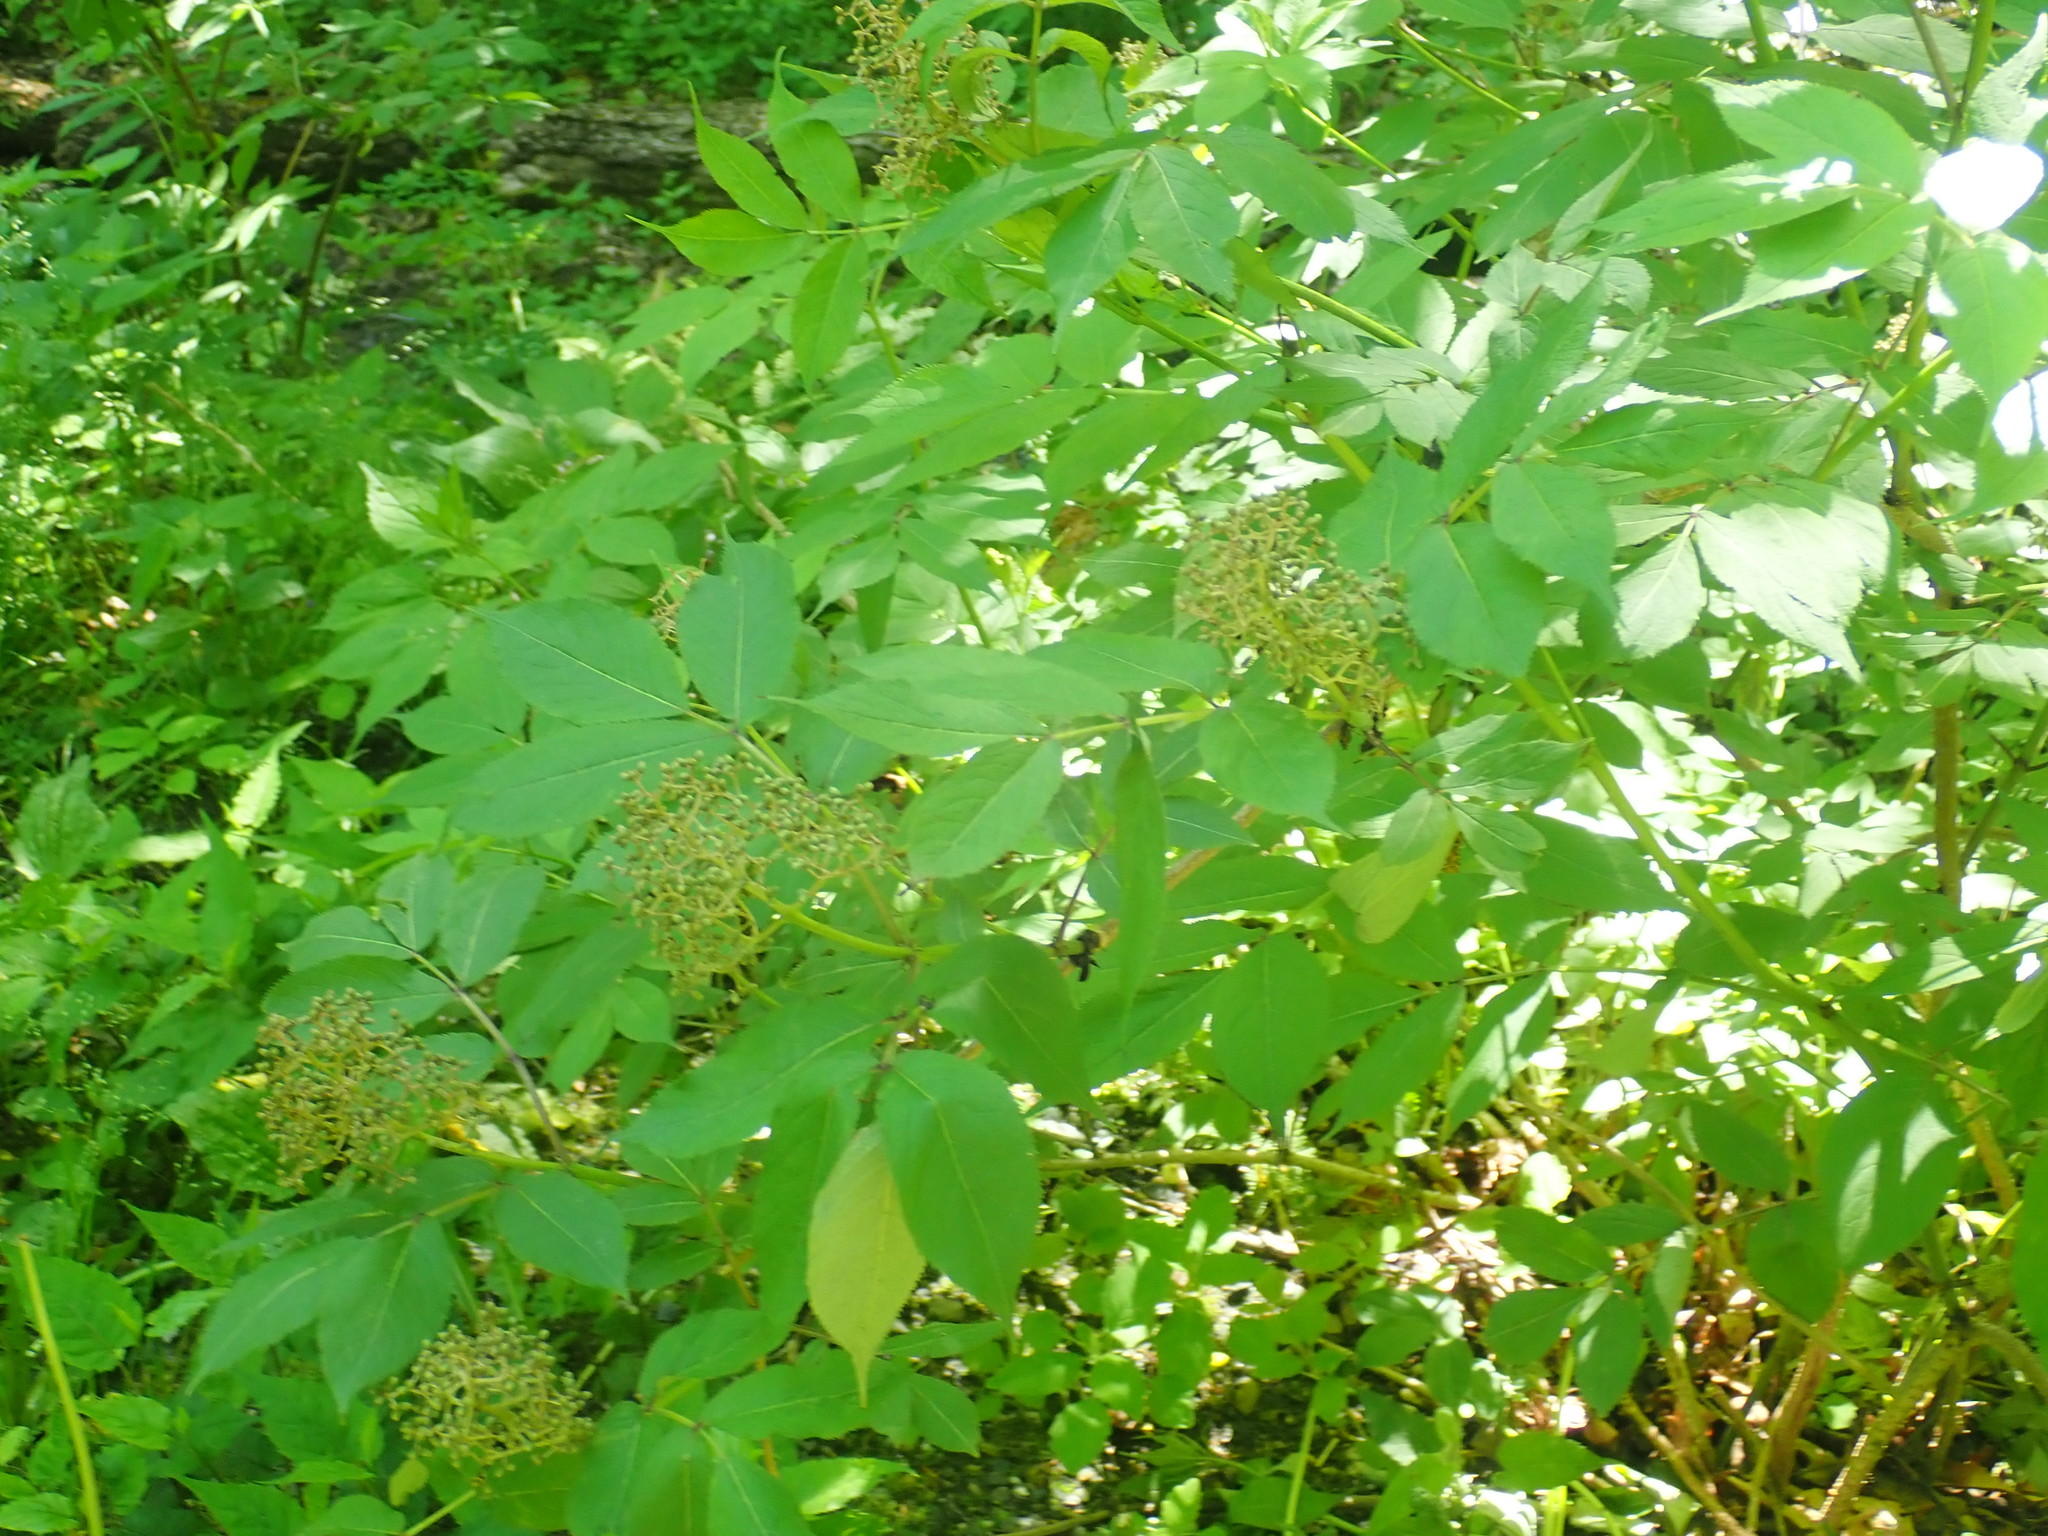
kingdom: Plantae
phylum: Tracheophyta
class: Magnoliopsida
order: Dipsacales
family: Viburnaceae
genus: Sambucus
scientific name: Sambucus racemosa
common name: Red-berried elder
